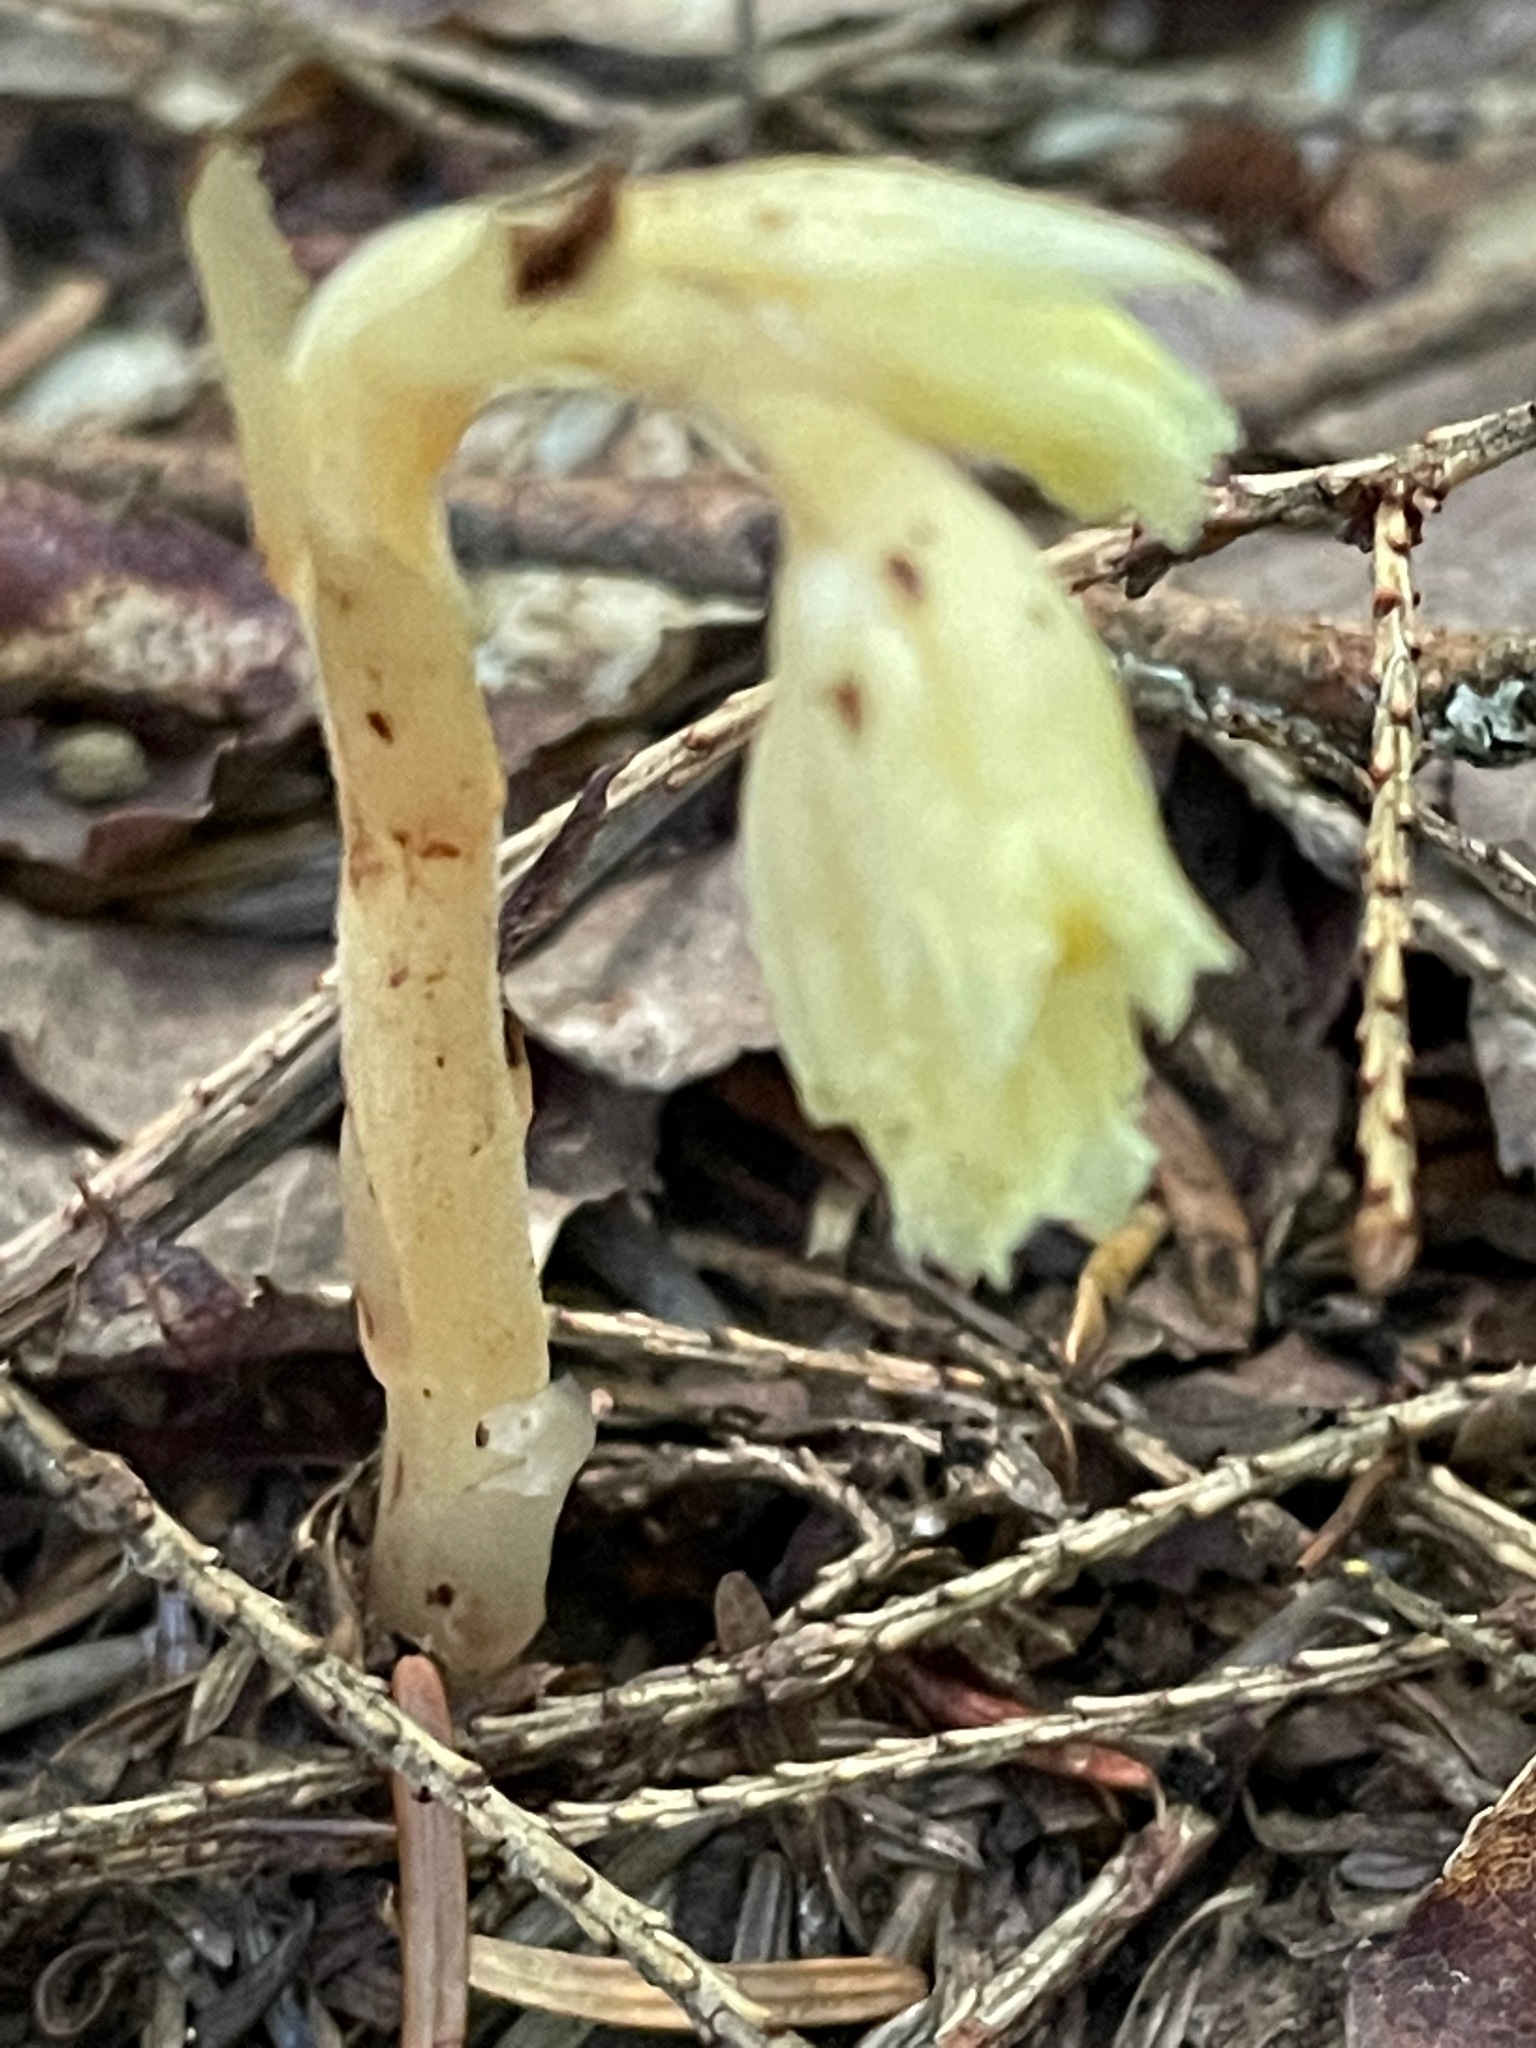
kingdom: Plantae
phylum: Tracheophyta
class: Magnoliopsida
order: Ericales
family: Ericaceae
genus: Hypopitys
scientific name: Hypopitys monotropa
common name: Yellow bird's-nest
